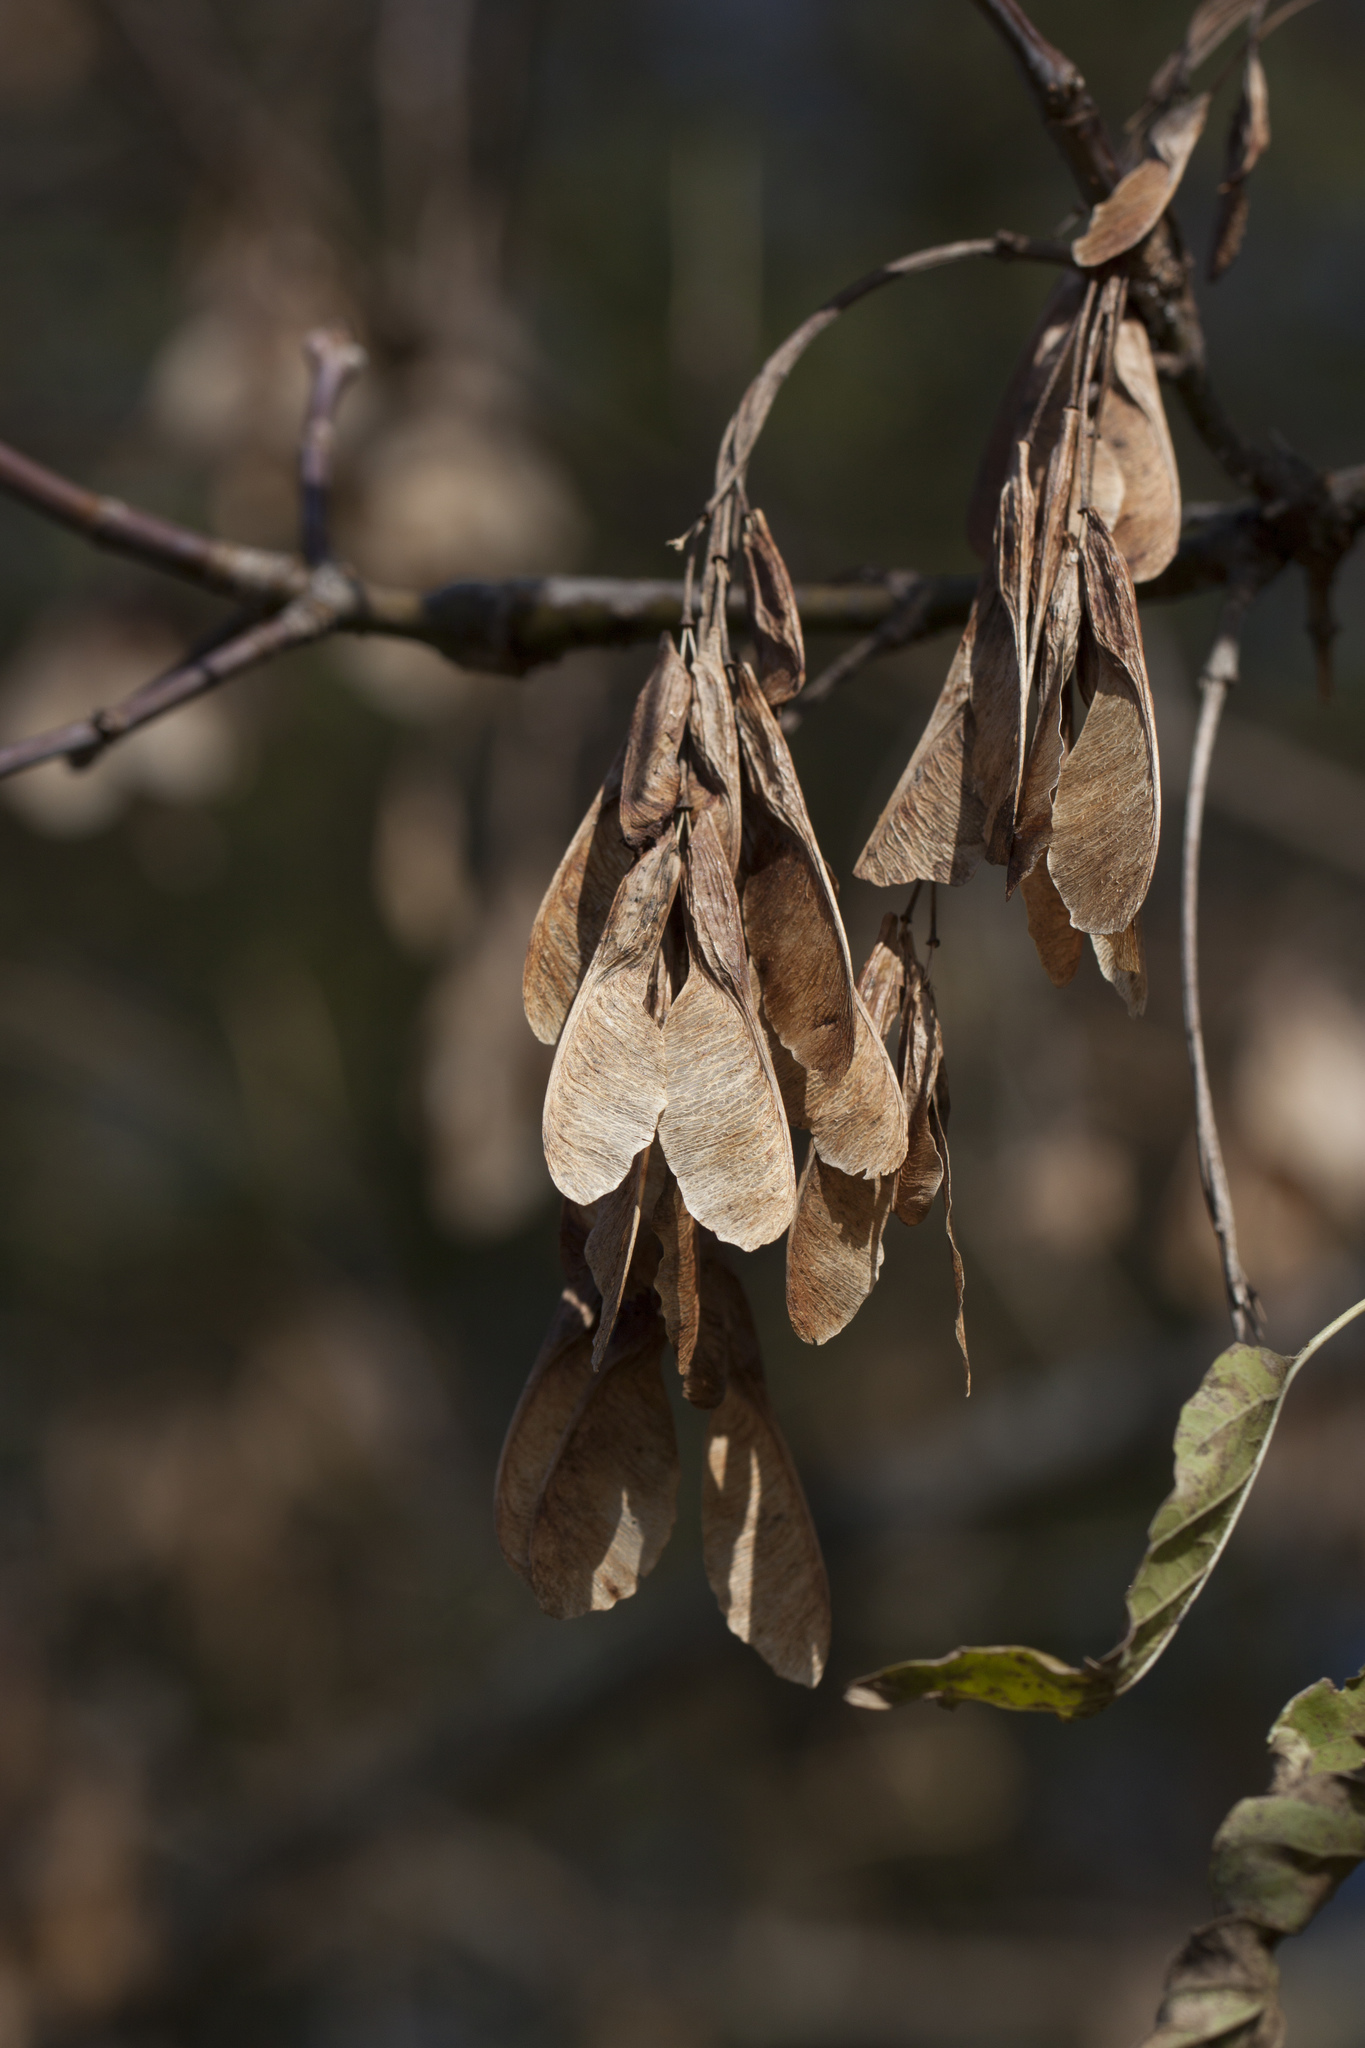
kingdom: Plantae
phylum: Tracheophyta
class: Magnoliopsida
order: Sapindales
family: Sapindaceae
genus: Acer
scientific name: Acer negundo
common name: Ashleaf maple
